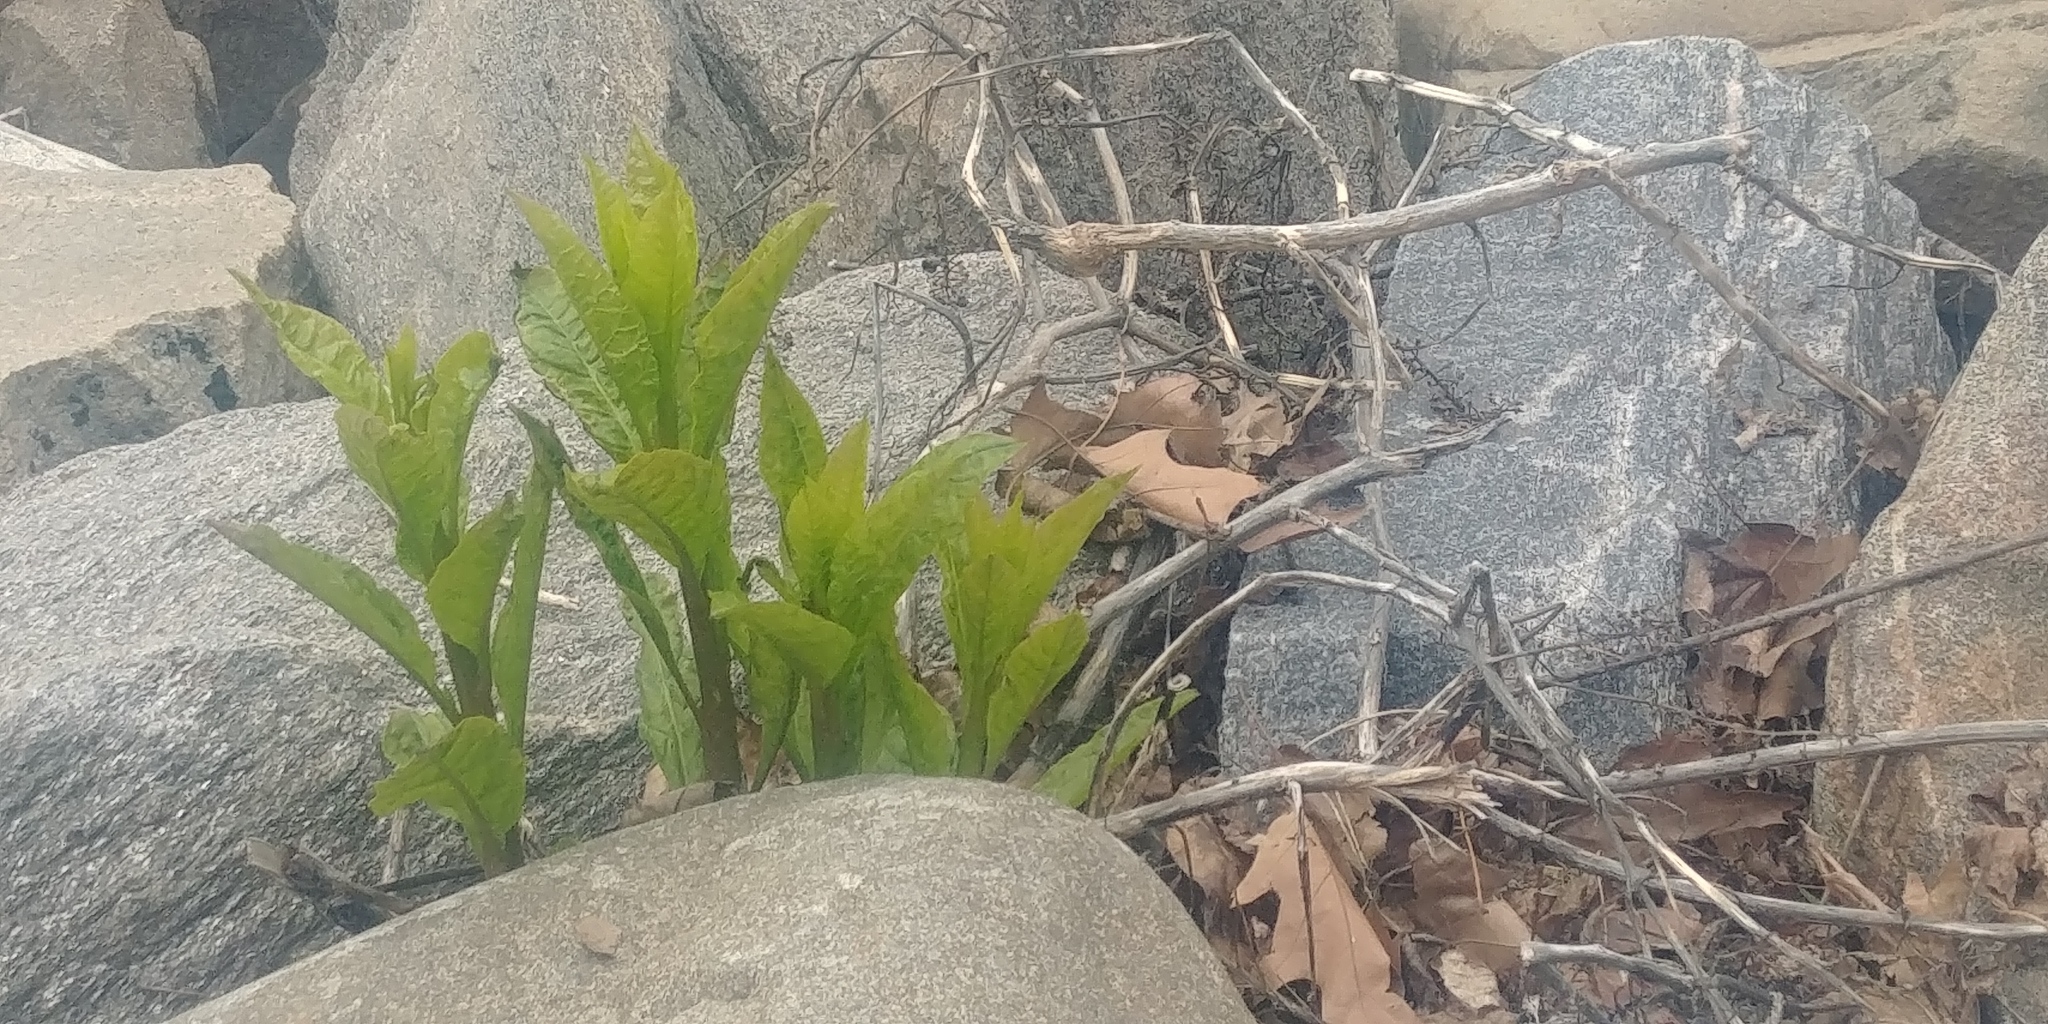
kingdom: Plantae
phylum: Tracheophyta
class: Magnoliopsida
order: Caryophyllales
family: Phytolaccaceae
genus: Phytolacca
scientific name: Phytolacca americana
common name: American pokeweed
